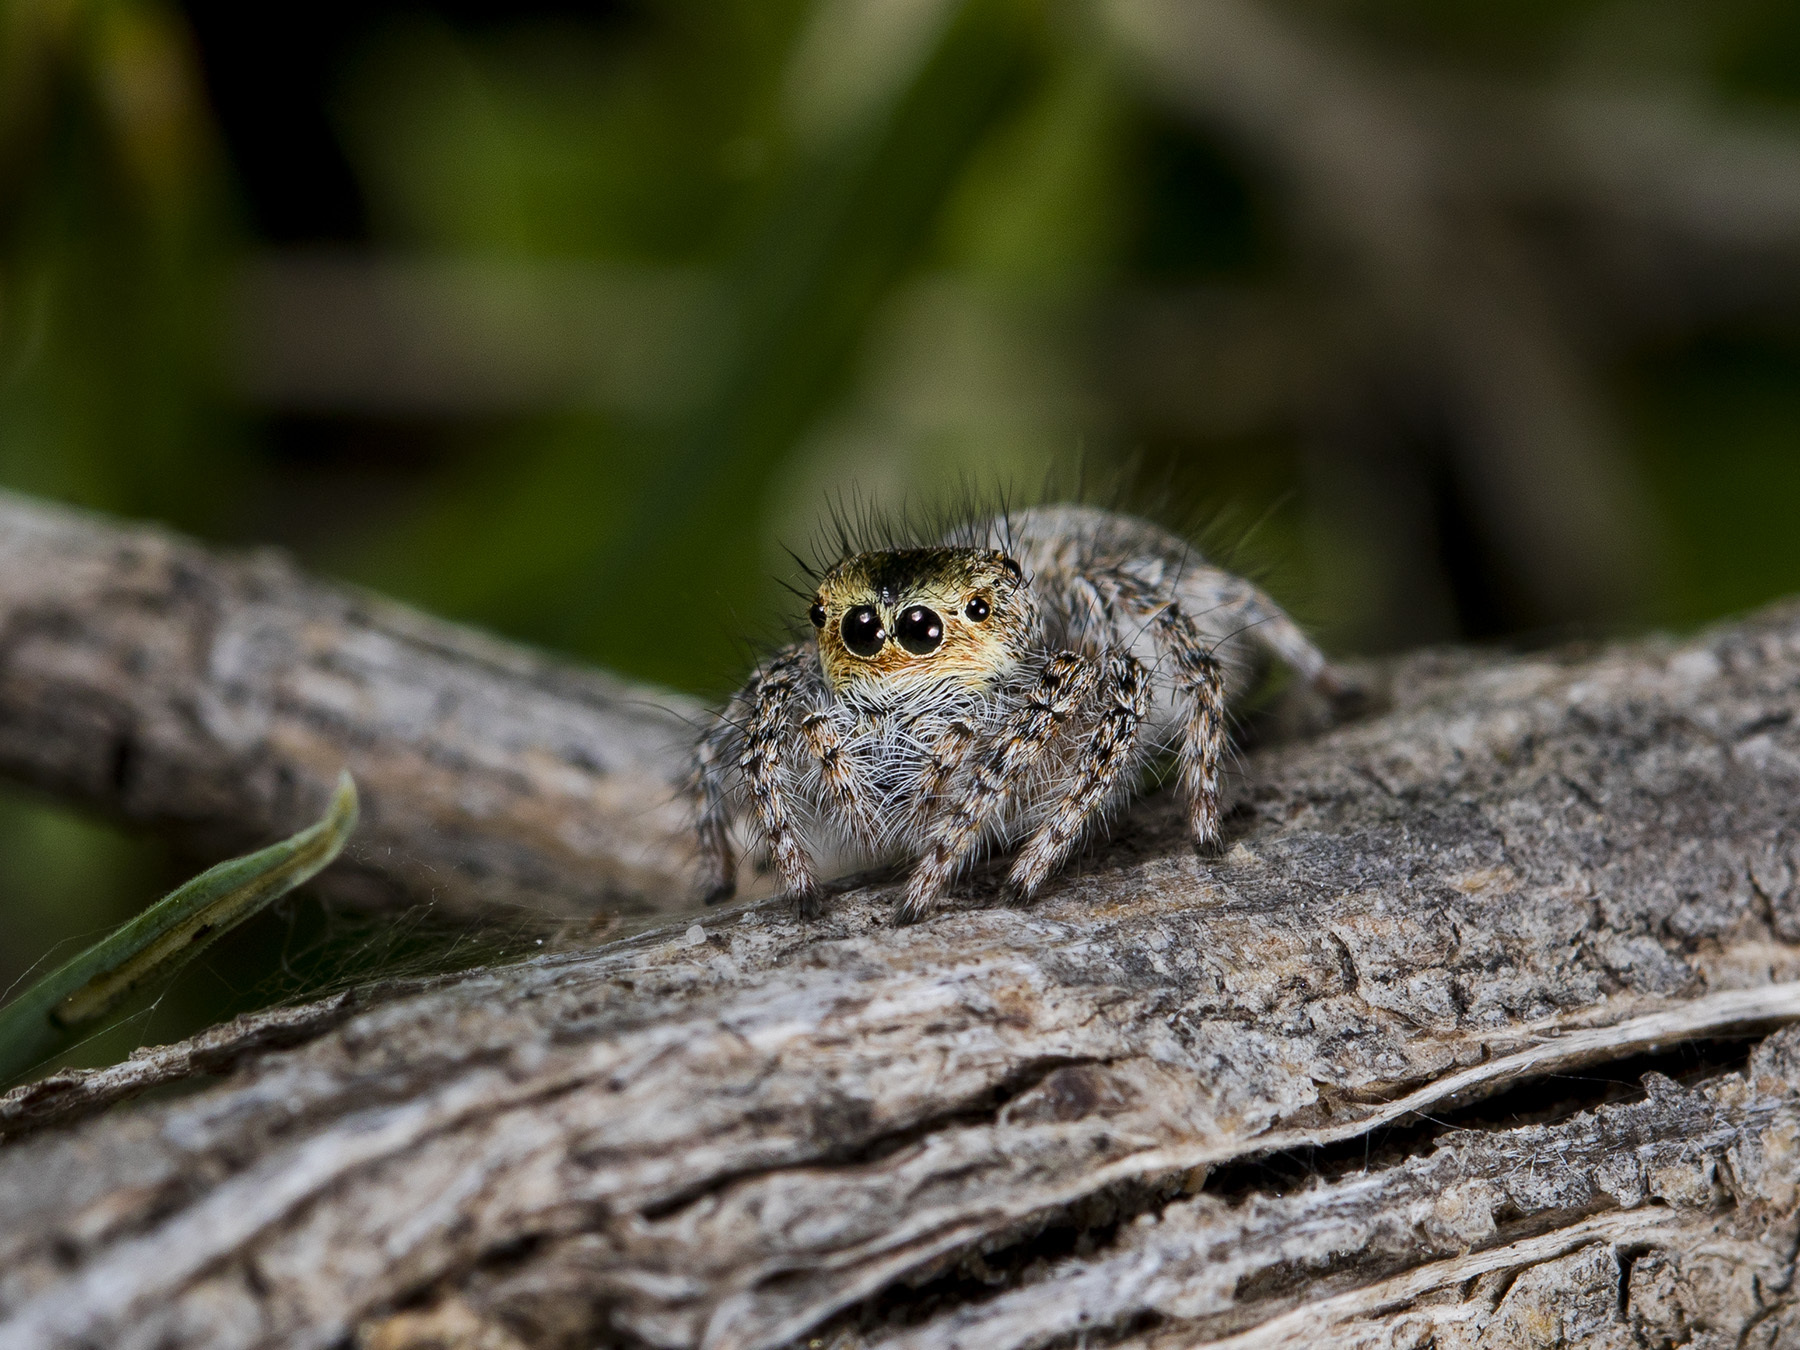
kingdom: Animalia
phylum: Arthropoda
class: Arachnida
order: Araneae
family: Salticidae
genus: Mogrus
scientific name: Mogrus larisae
